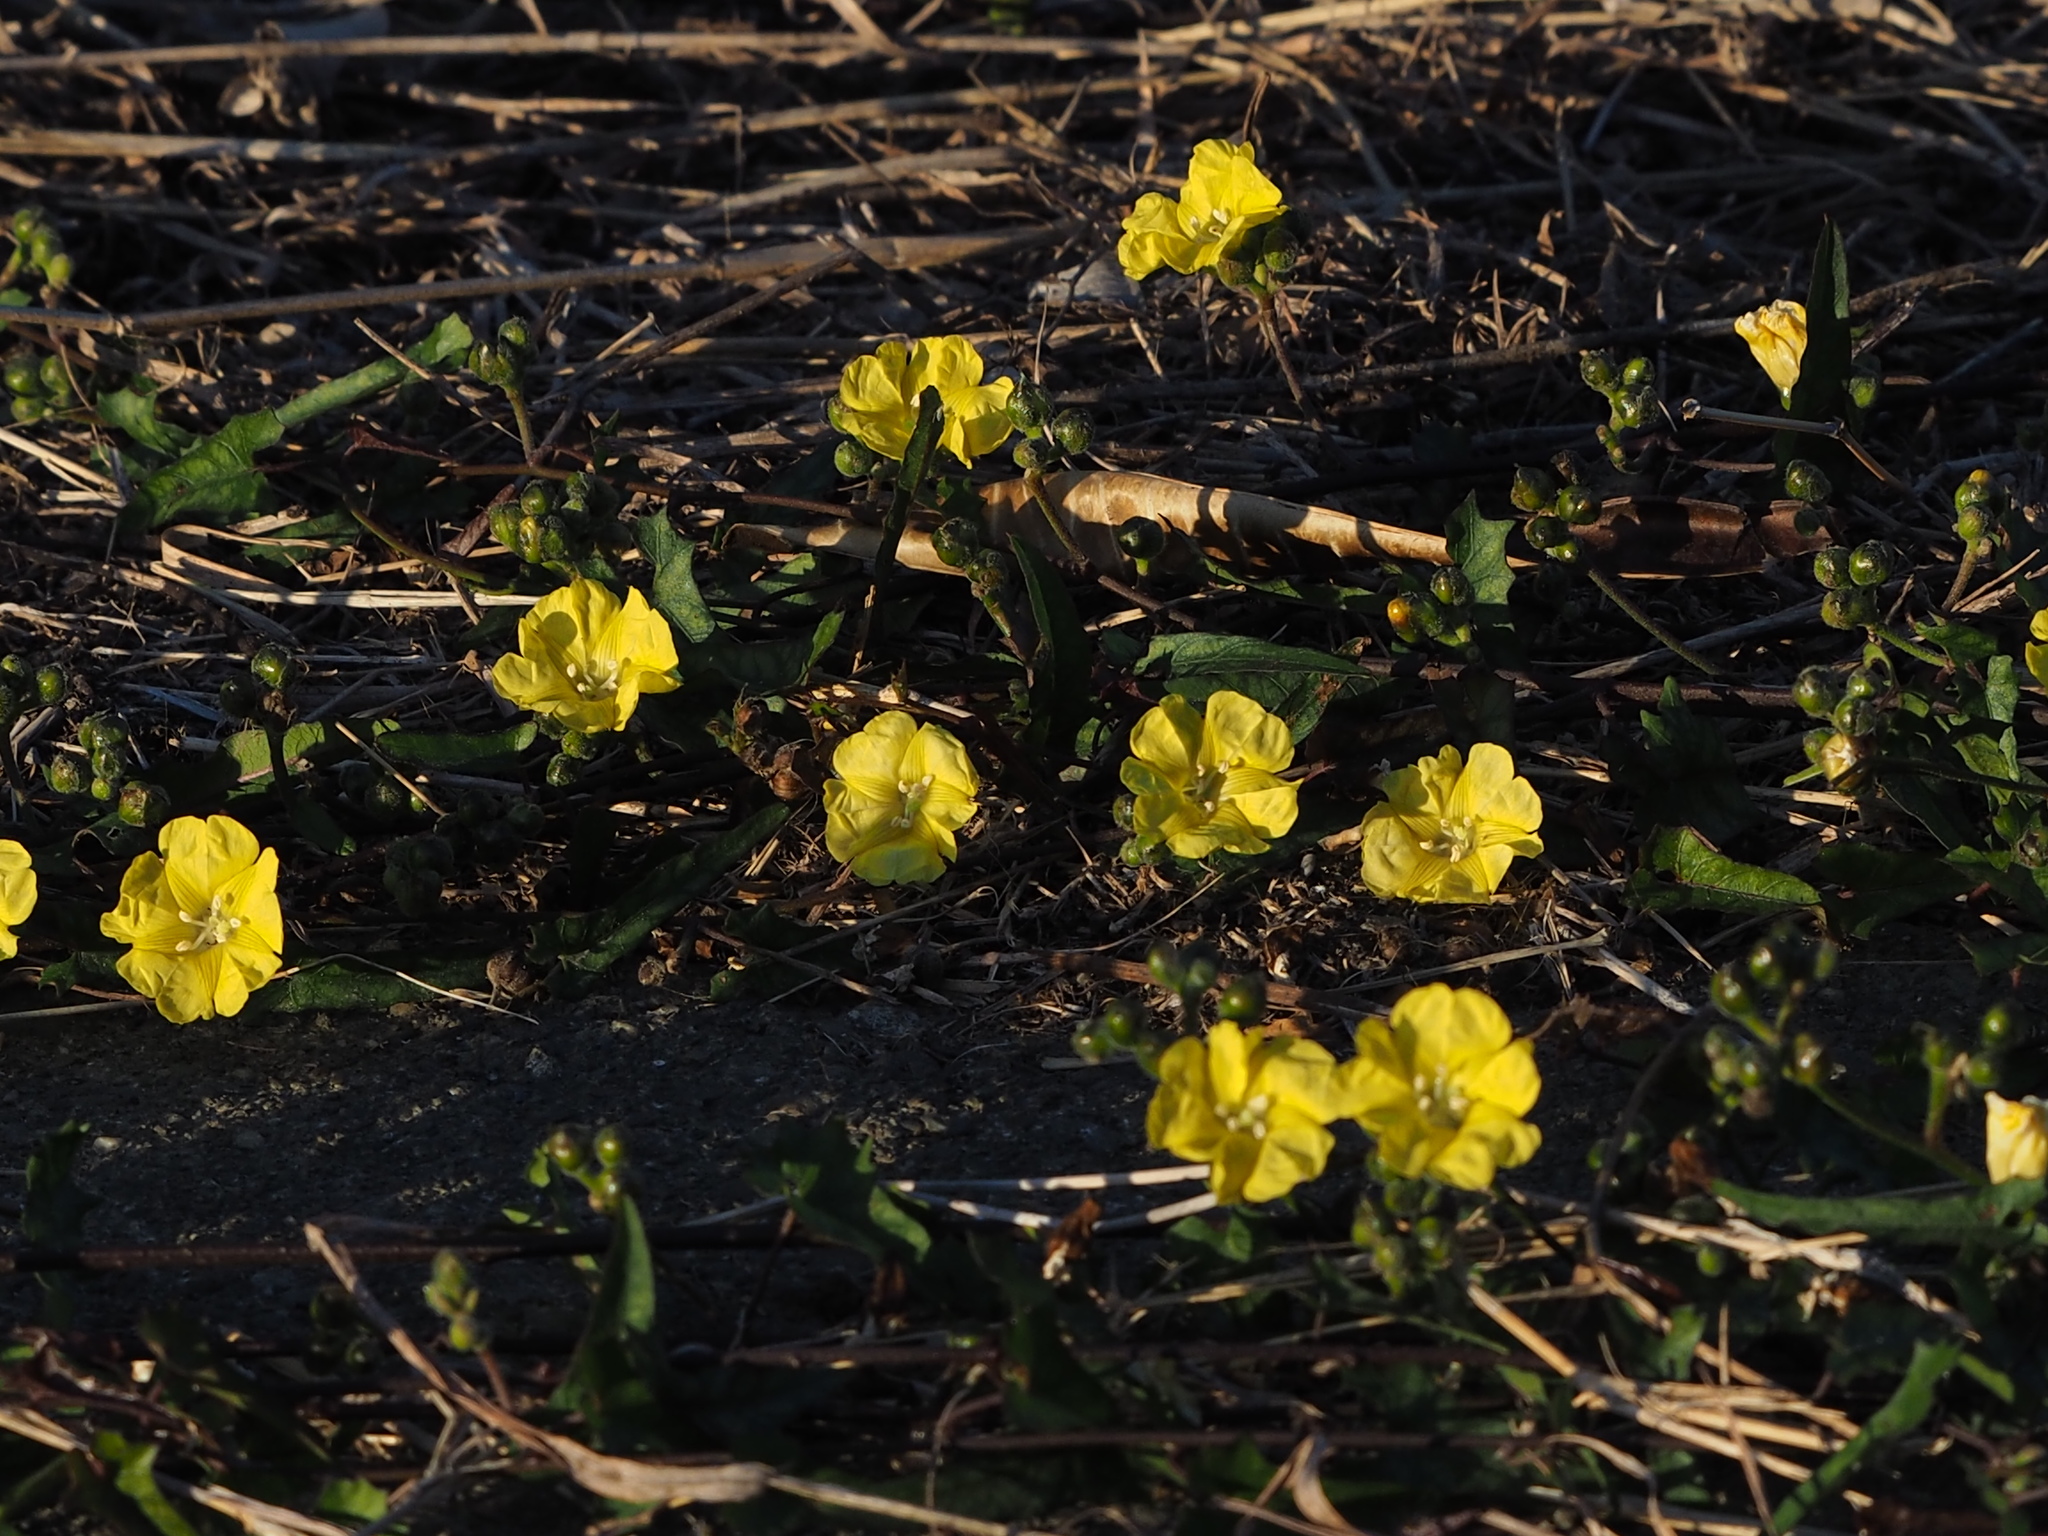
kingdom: Plantae
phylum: Tracheophyta
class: Magnoliopsida
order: Solanales
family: Convolvulaceae
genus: Merremia
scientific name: Merremia gemella
